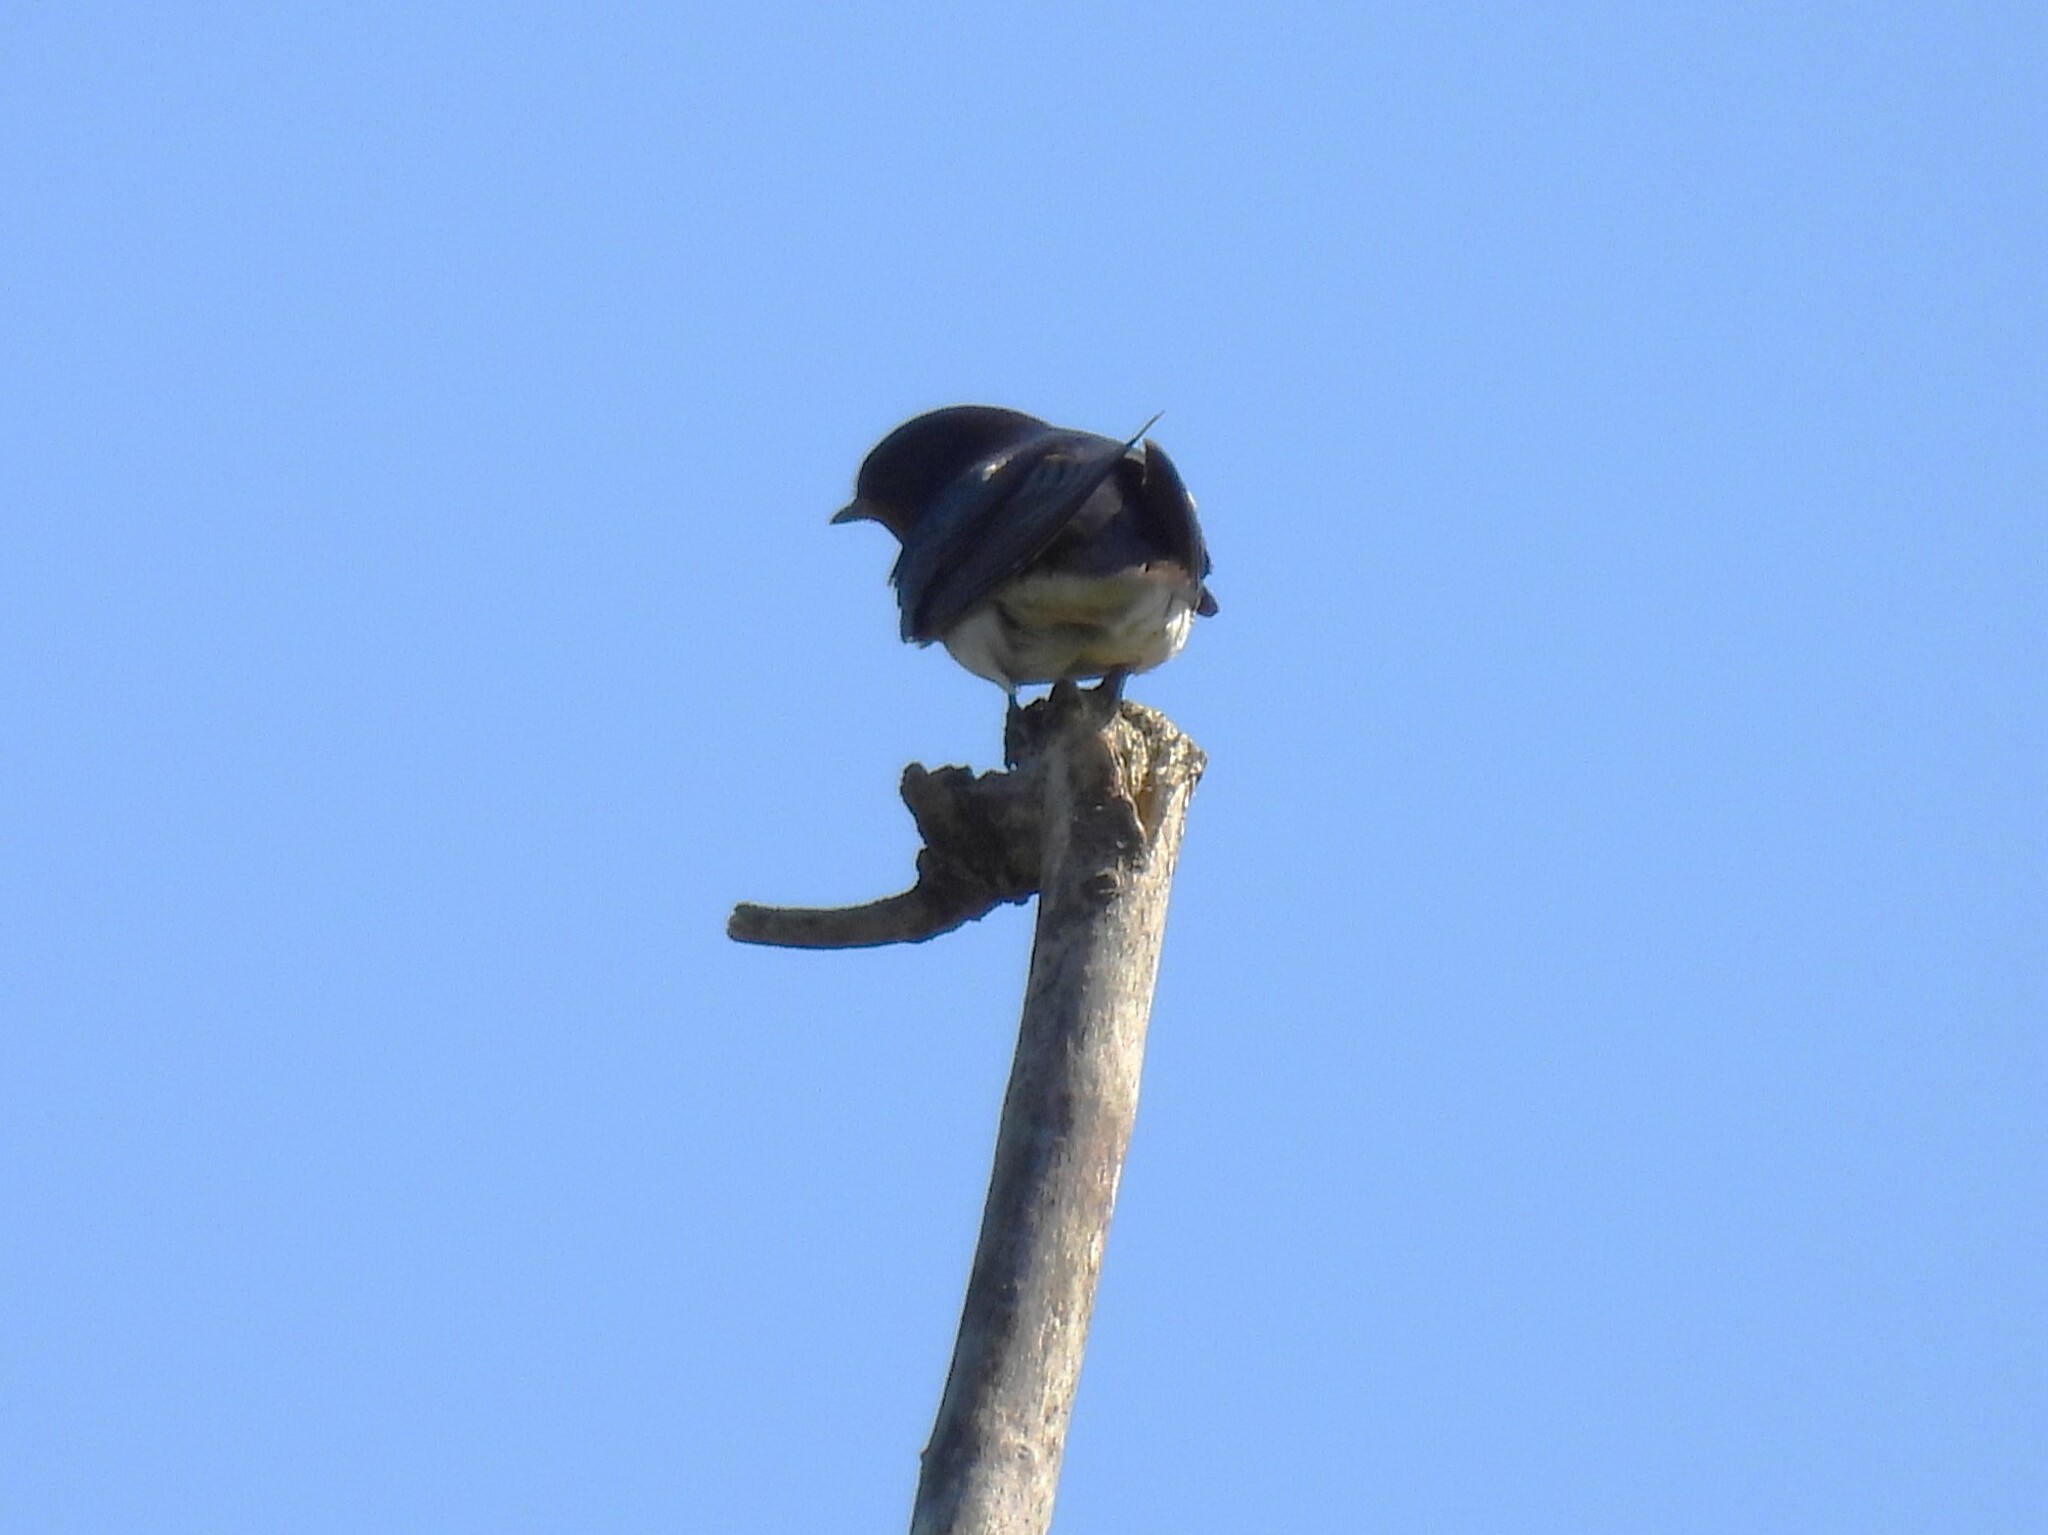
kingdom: Animalia
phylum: Chordata
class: Aves
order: Passeriformes
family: Hirundinidae
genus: Hirundo
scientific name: Hirundo rustica
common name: Barn swallow
